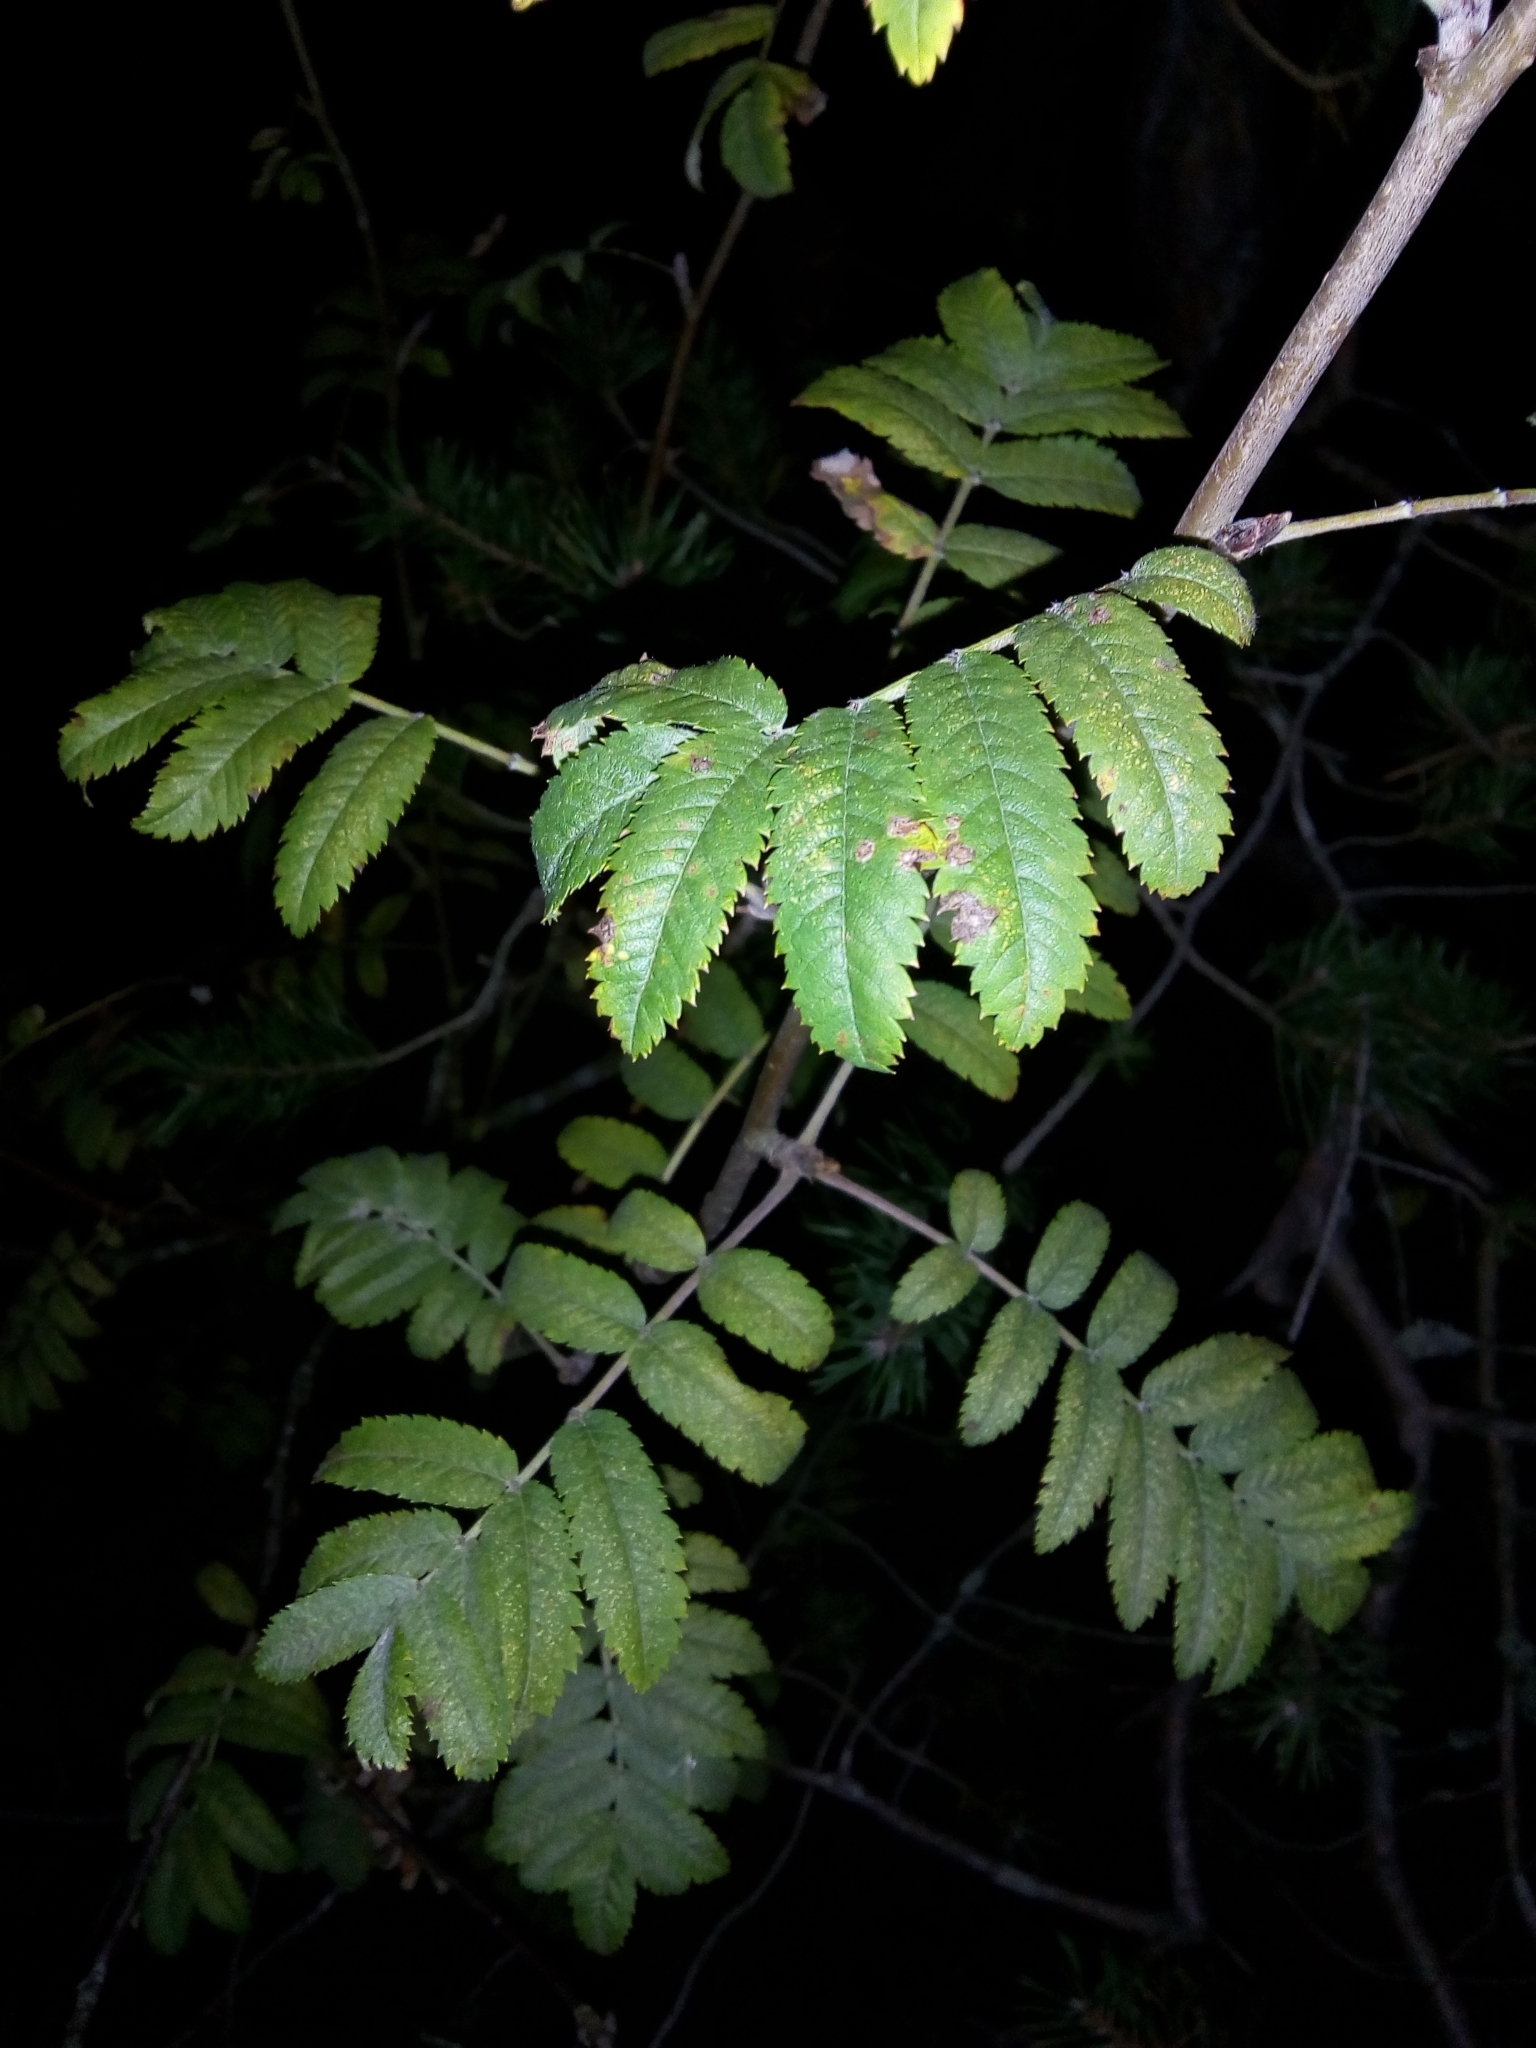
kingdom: Plantae
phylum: Tracheophyta
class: Magnoliopsida
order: Rosales
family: Rosaceae
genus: Sorbus
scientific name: Sorbus aucuparia
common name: Rowan
